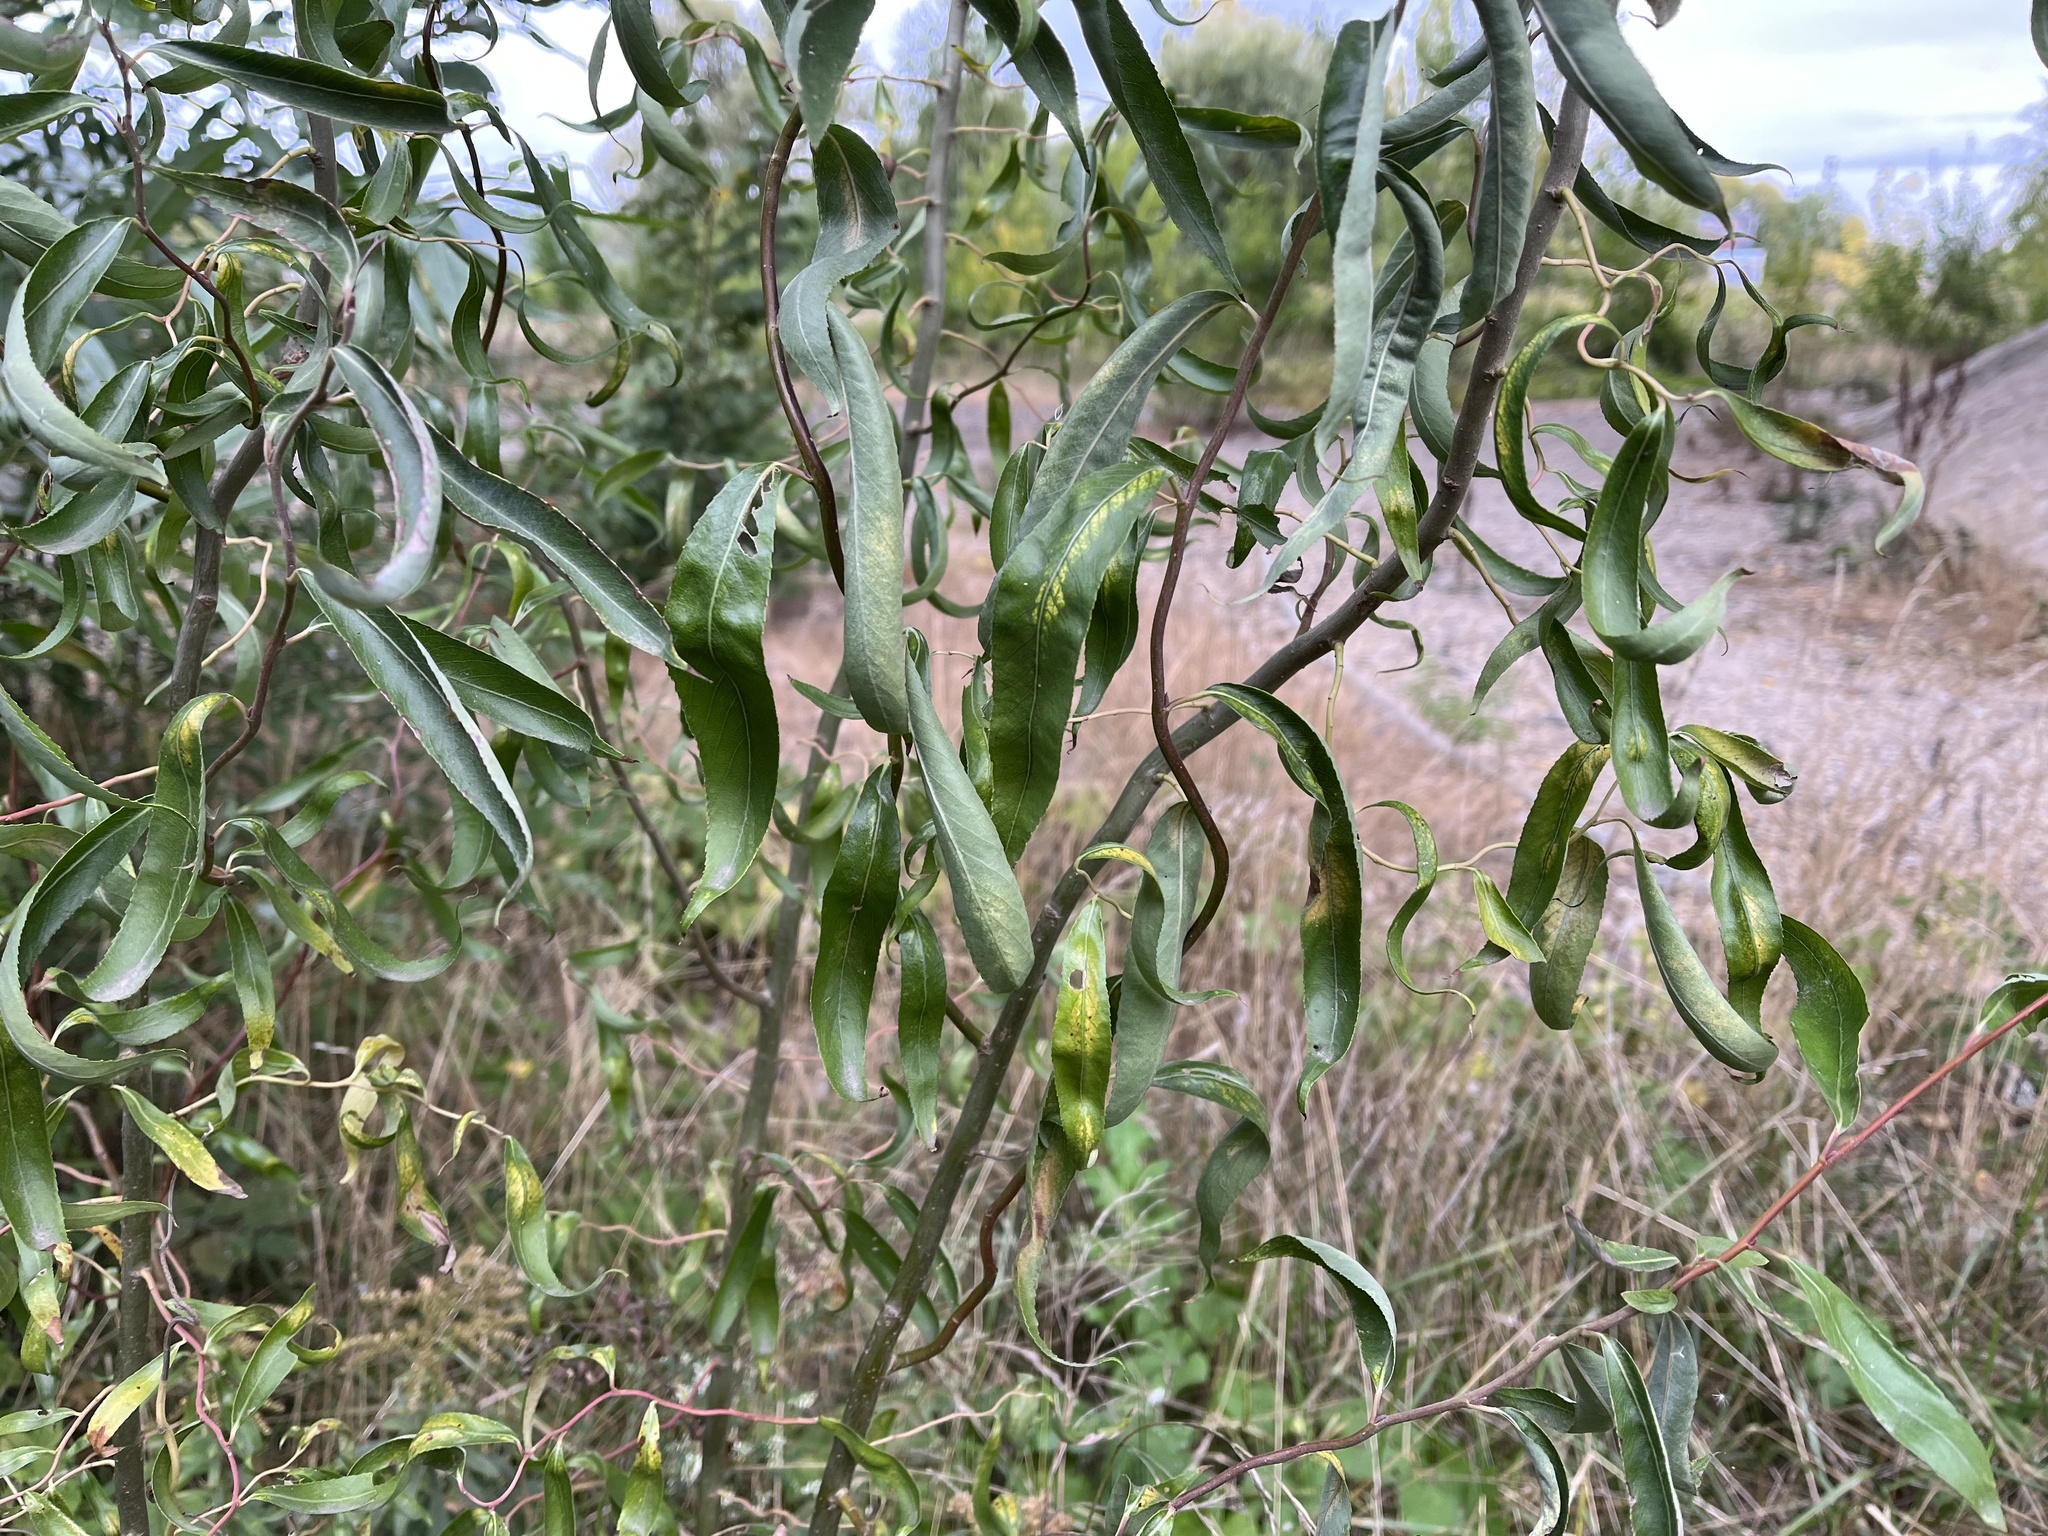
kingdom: Plantae
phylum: Tracheophyta
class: Magnoliopsida
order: Malpighiales
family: Salicaceae
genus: Salix
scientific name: Salix
